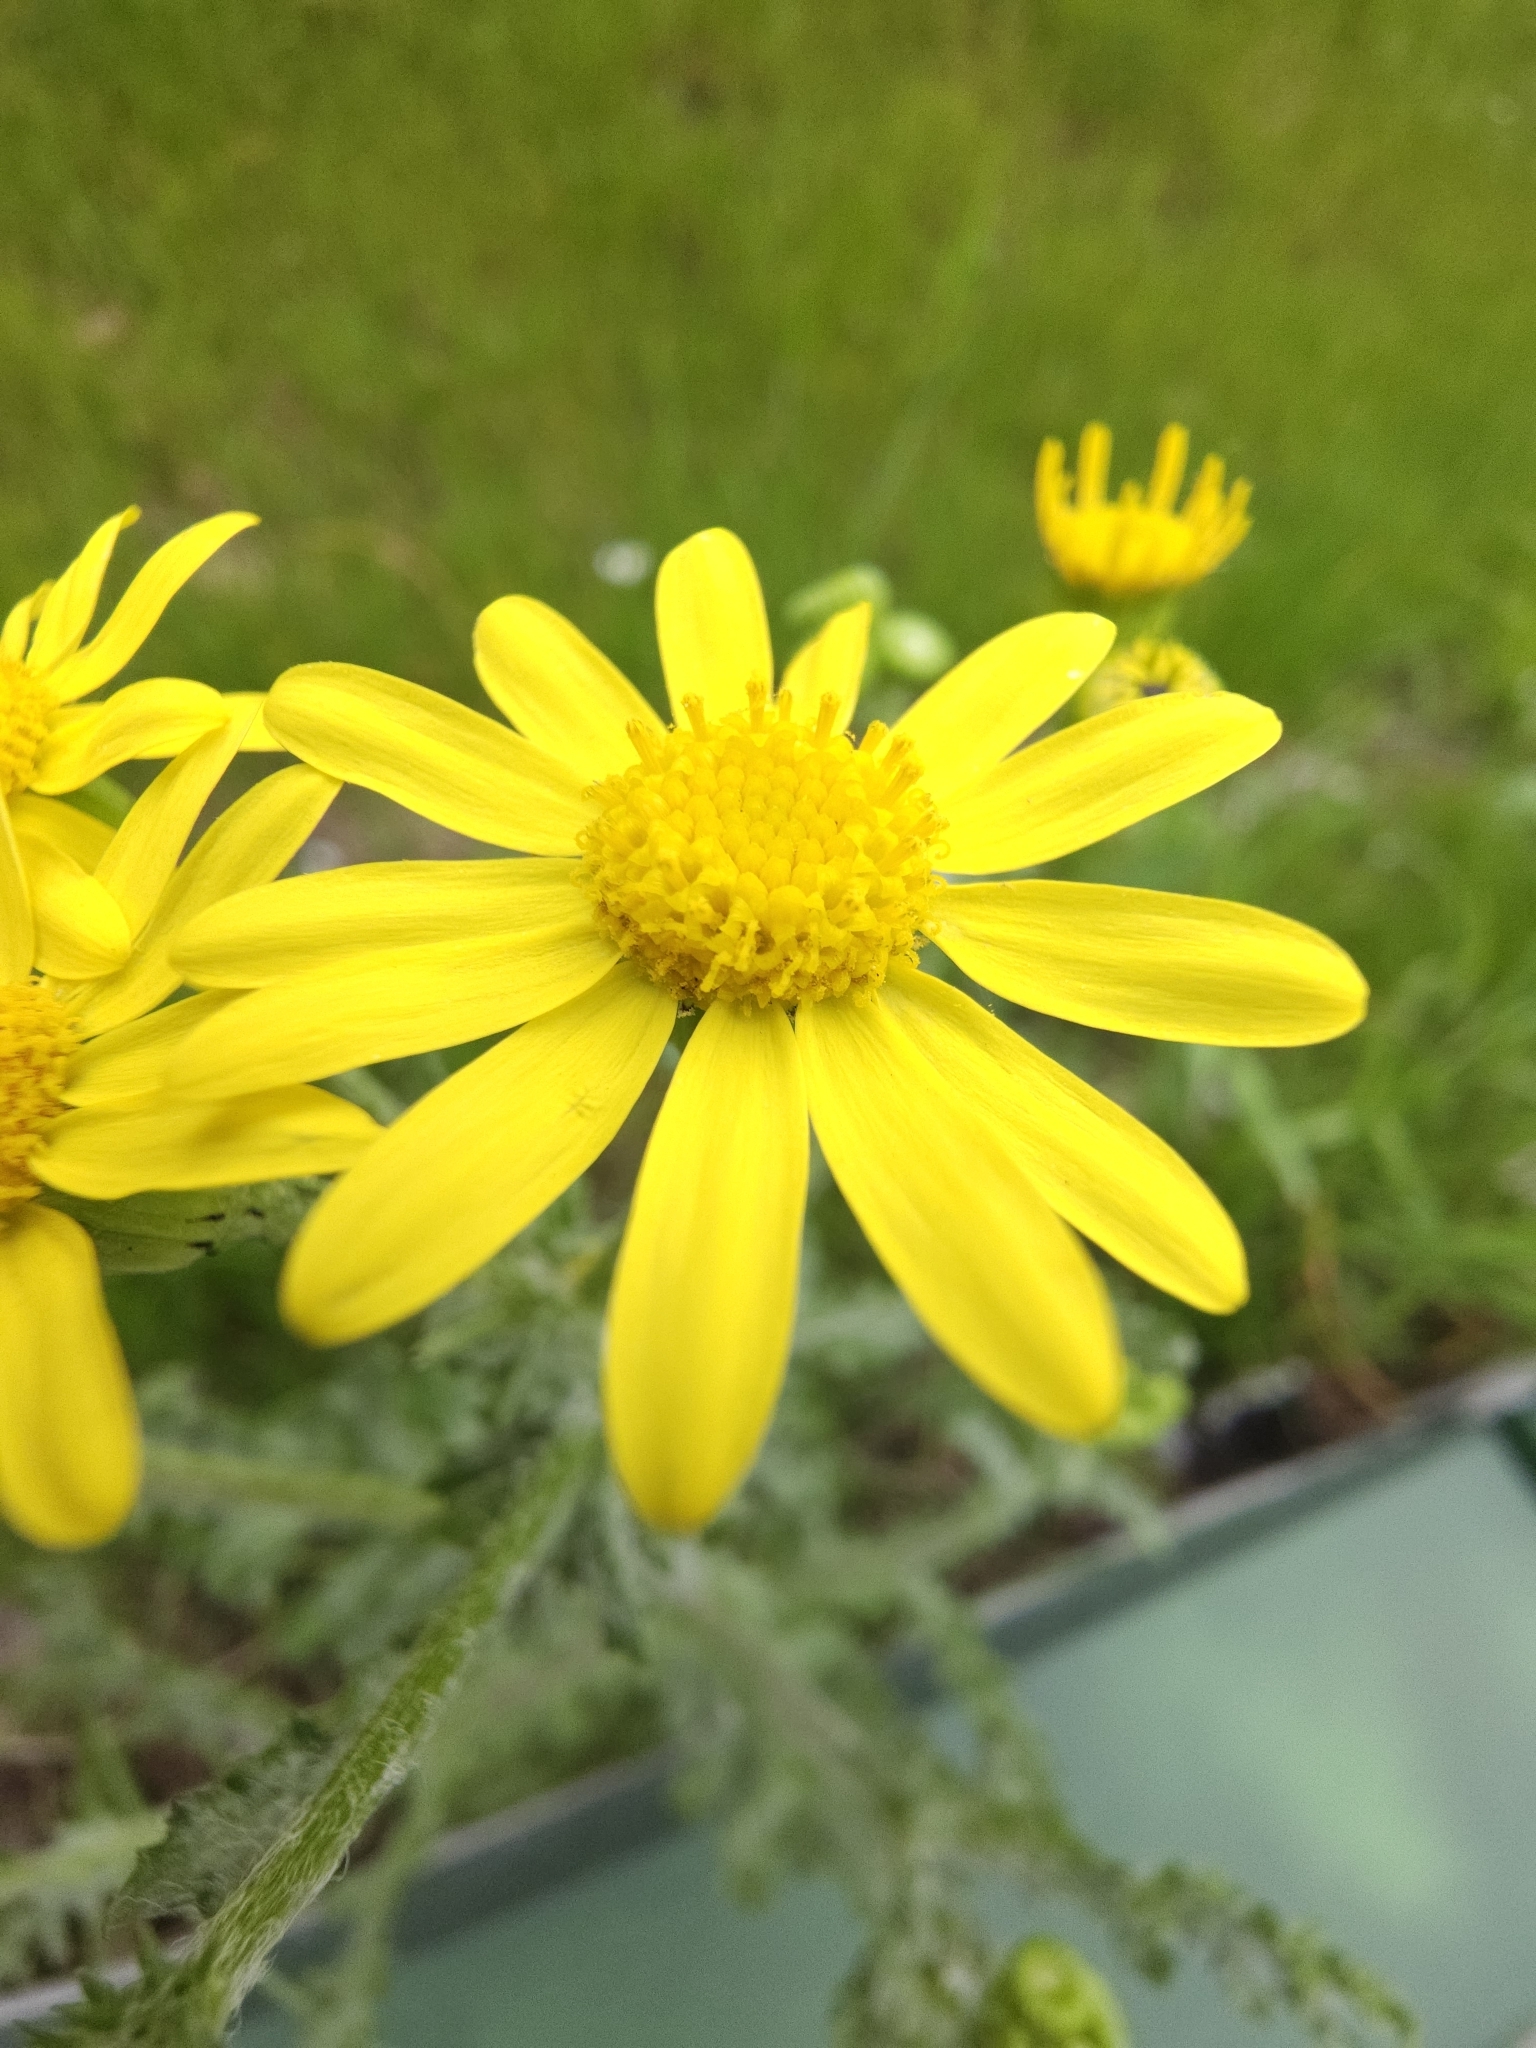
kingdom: Plantae
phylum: Tracheophyta
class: Magnoliopsida
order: Asterales
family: Asteraceae
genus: Senecio
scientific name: Senecio vernalis
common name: Eastern groundsel
